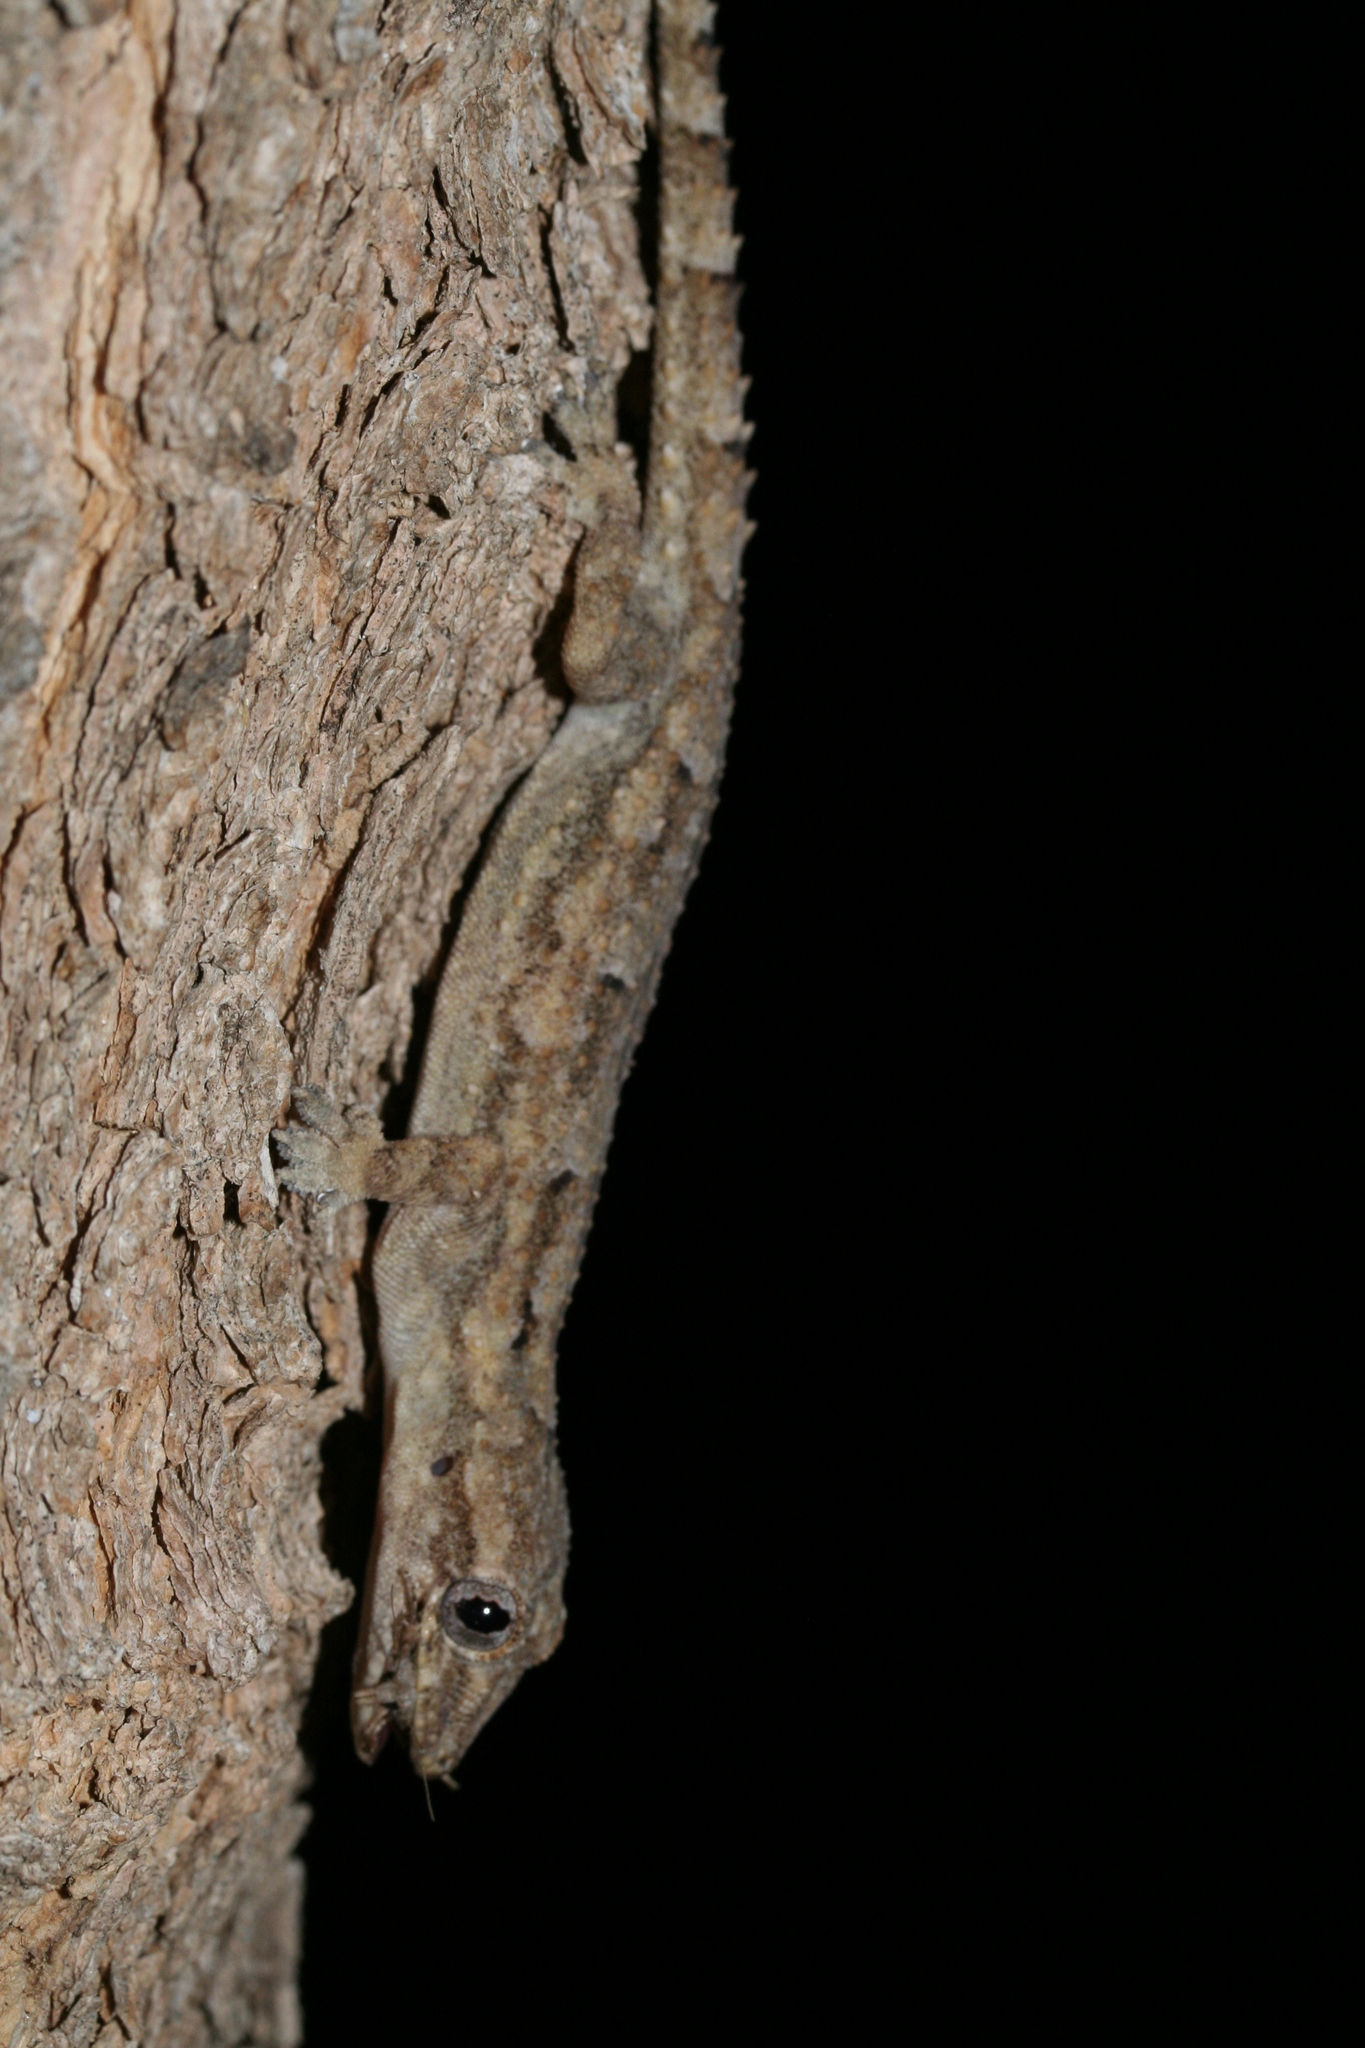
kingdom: Animalia
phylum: Chordata
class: Squamata
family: Gekkonidae
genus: Hemidactylus
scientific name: Hemidactylus mercatorius
